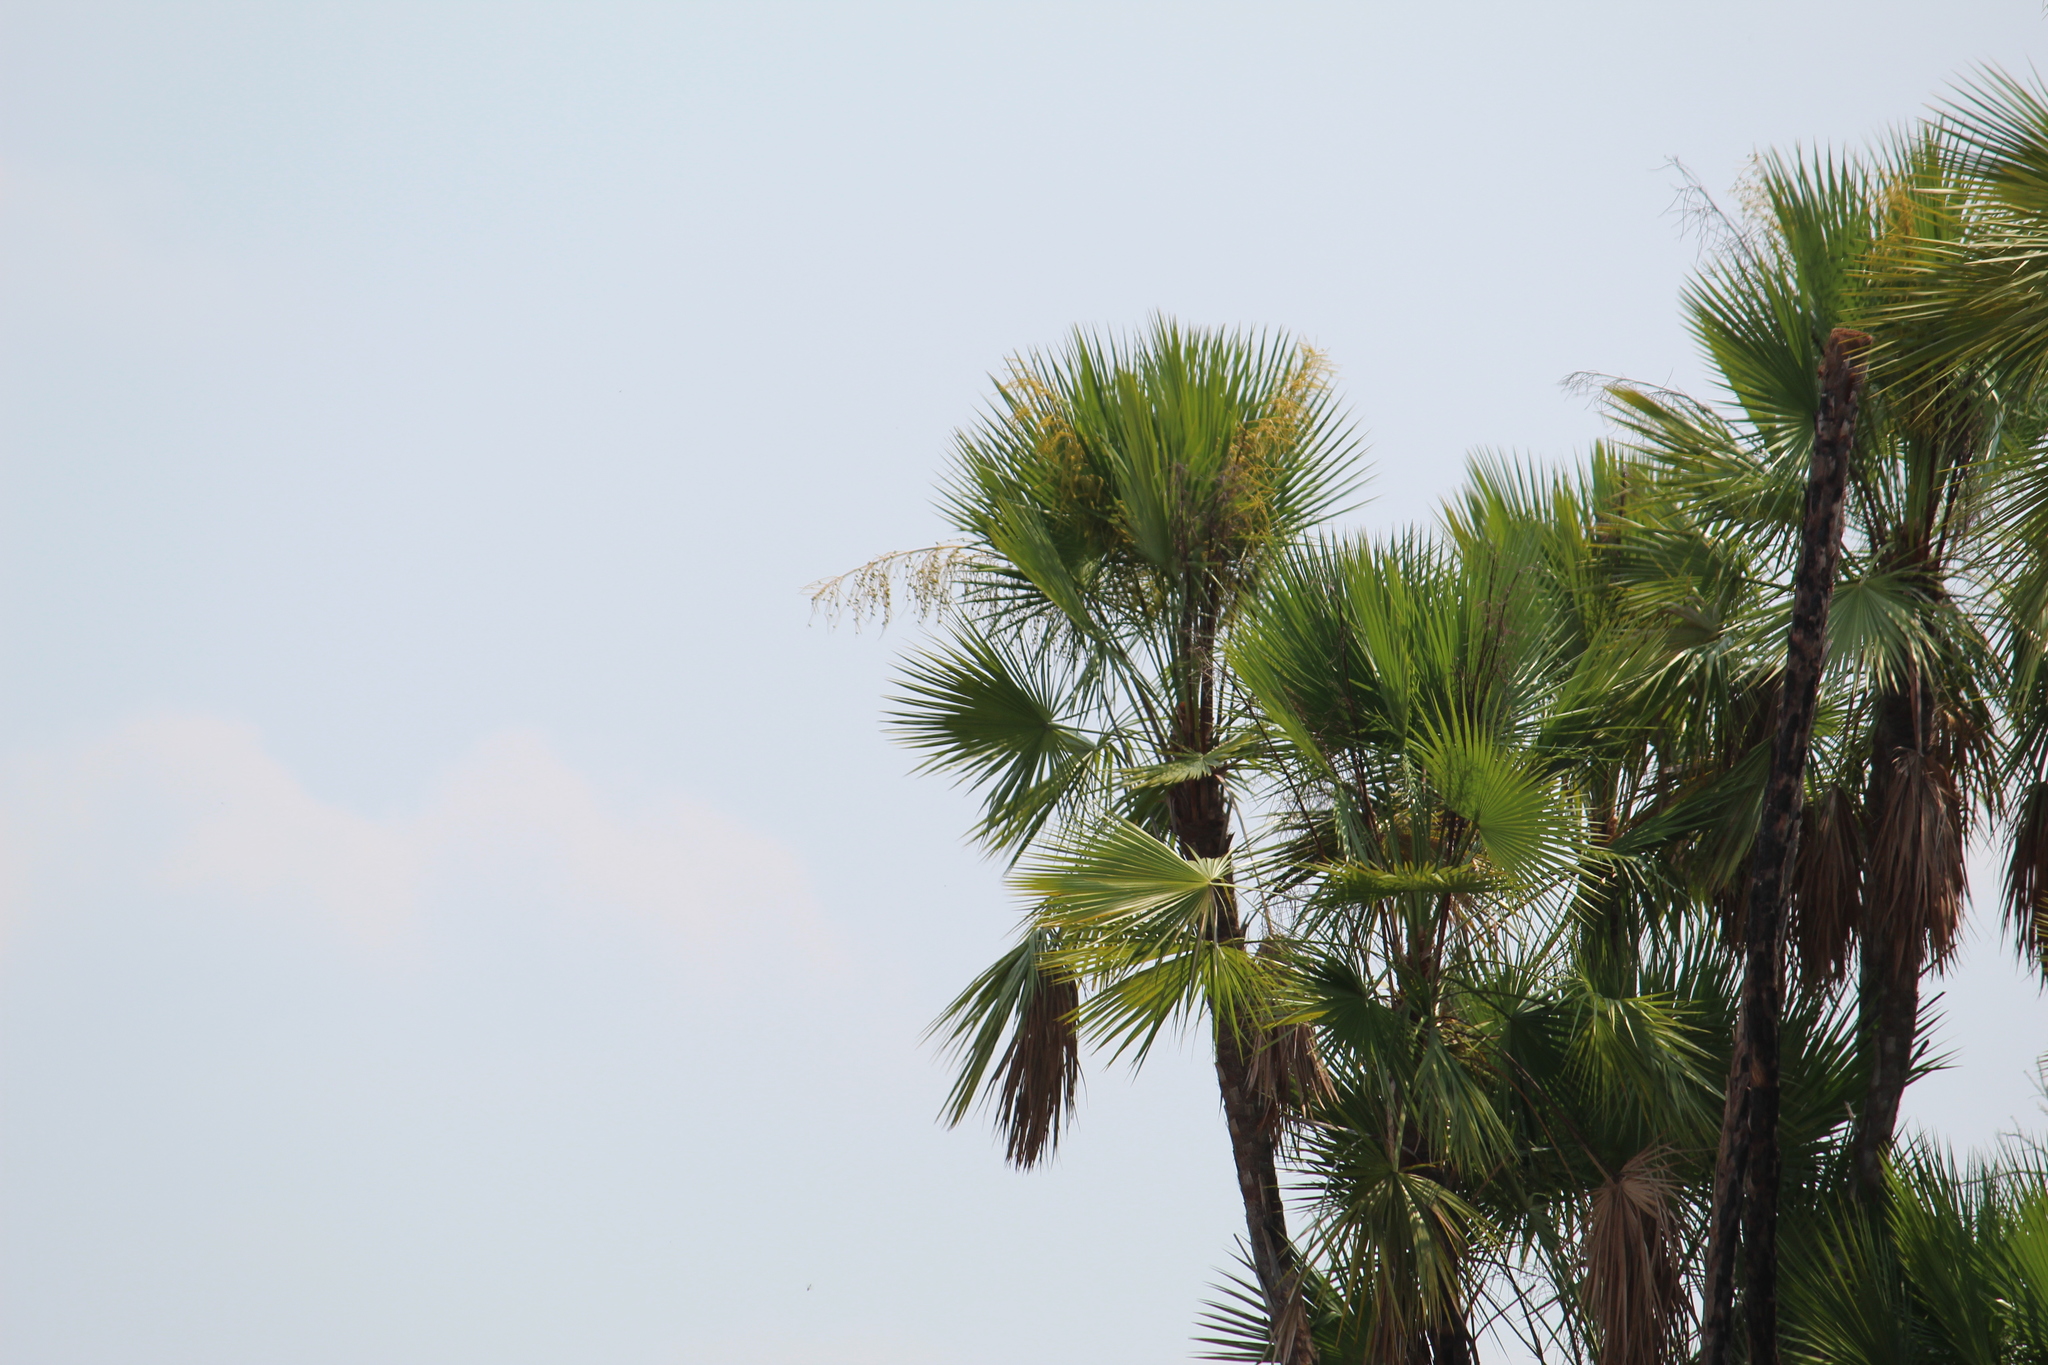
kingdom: Plantae
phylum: Tracheophyta
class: Liliopsida
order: Arecales
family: Arecaceae
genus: Acoelorraphe
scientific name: Acoelorraphe wrightii
